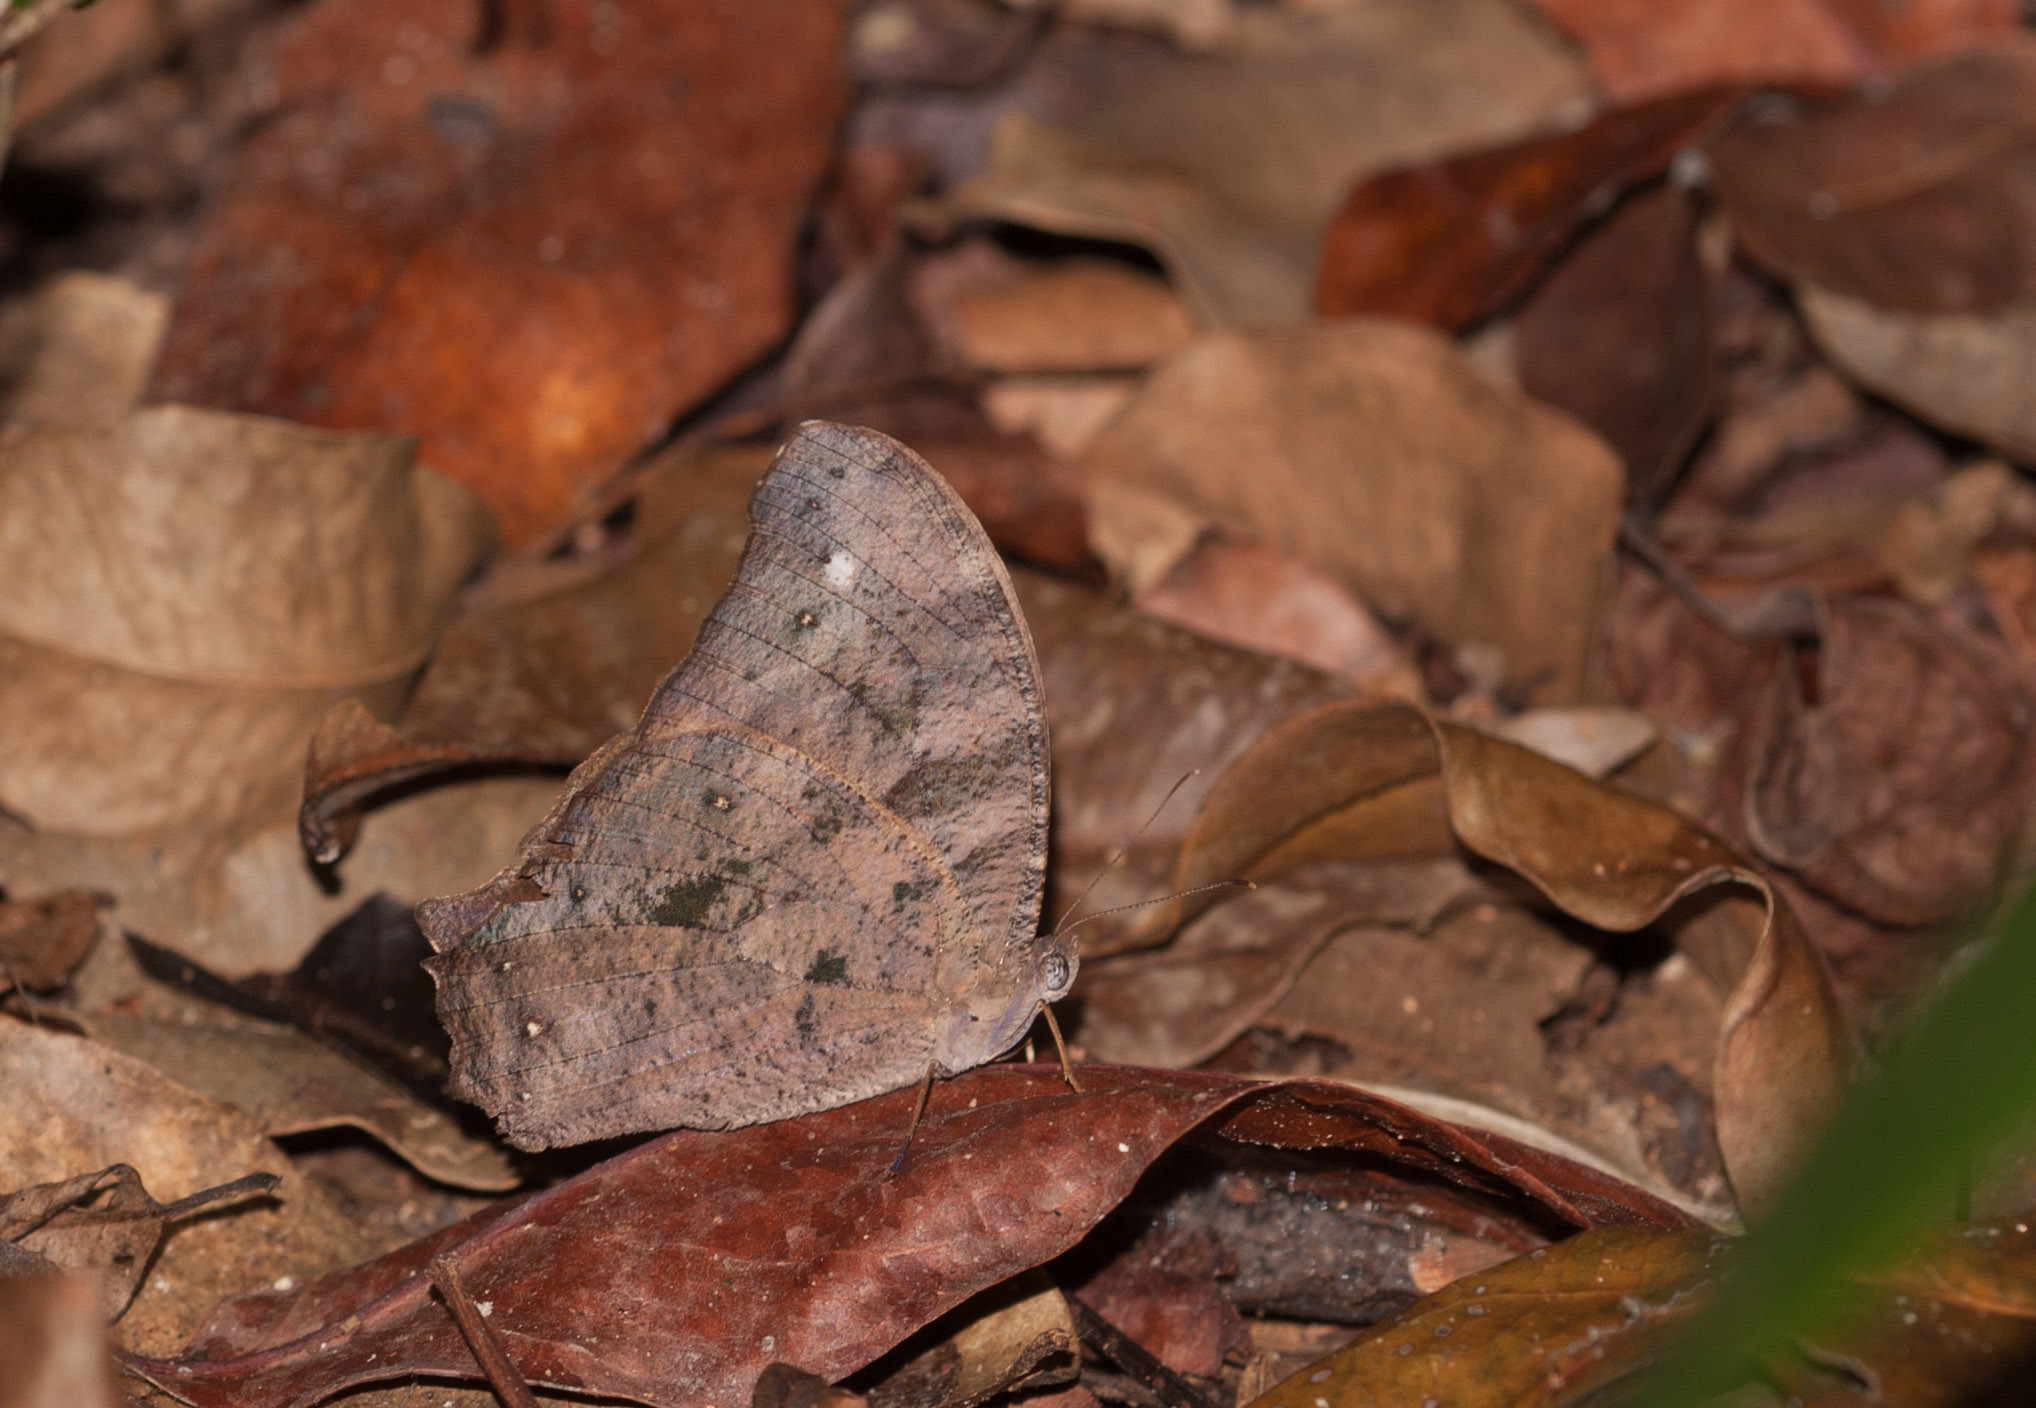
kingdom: Animalia
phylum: Arthropoda
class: Insecta
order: Lepidoptera
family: Nymphalidae
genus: Melanitis
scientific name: Melanitis leda
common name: Twilight brown
